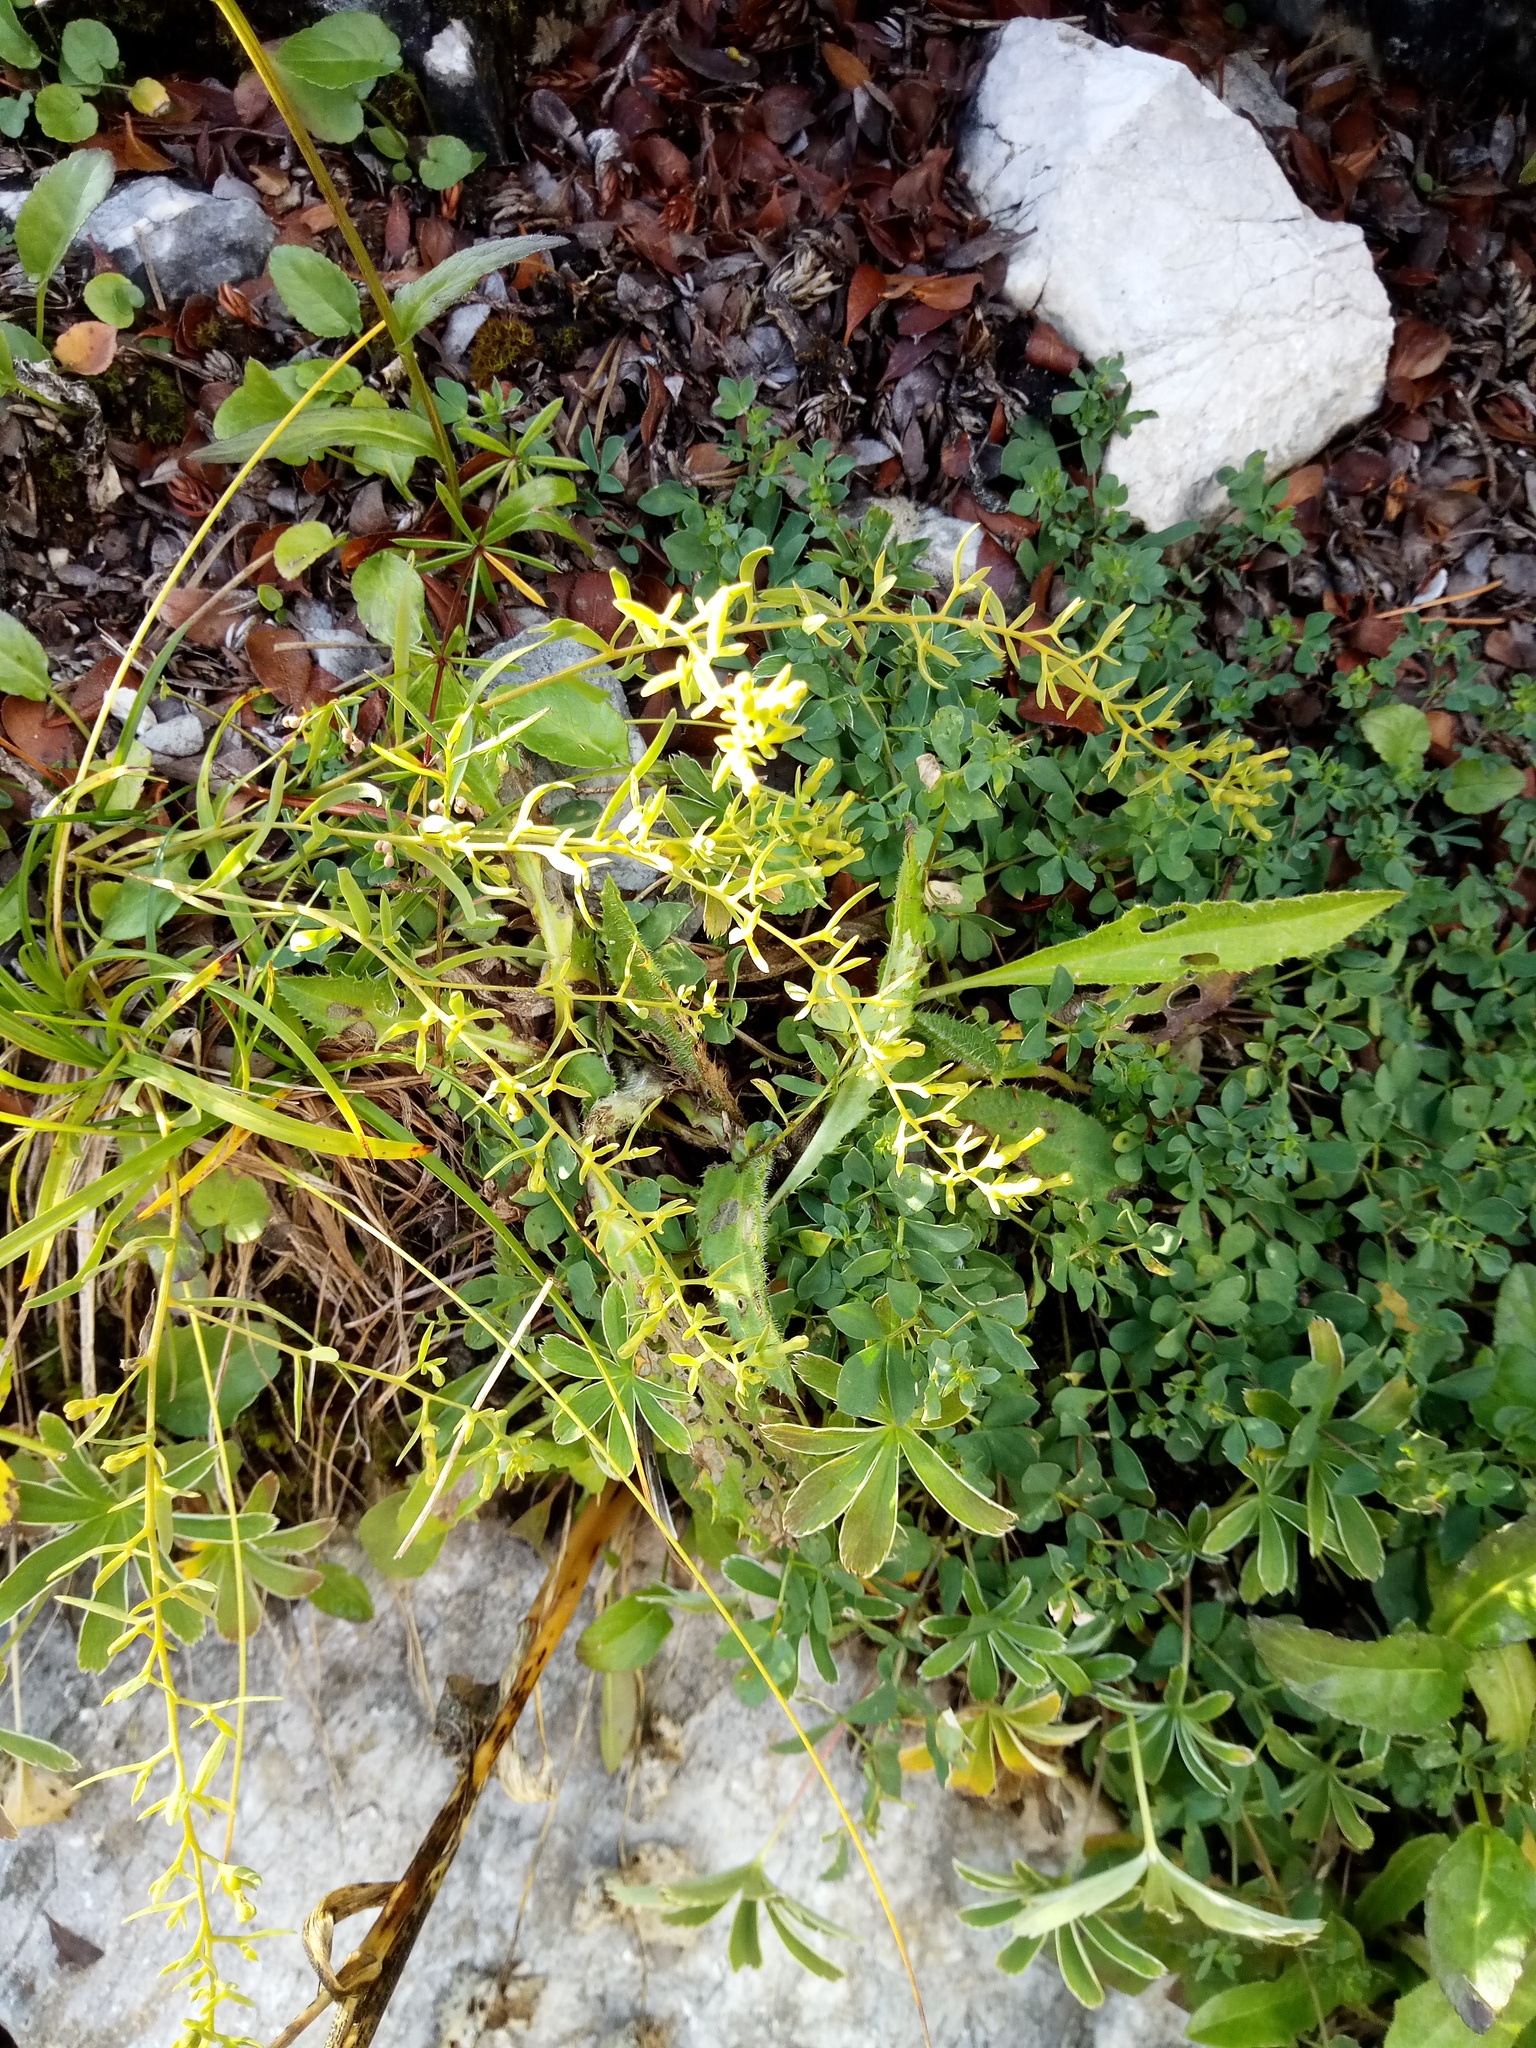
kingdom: Plantae
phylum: Tracheophyta
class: Magnoliopsida
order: Santalales
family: Thesiaceae
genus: Thesium
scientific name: Thesium alpinum
